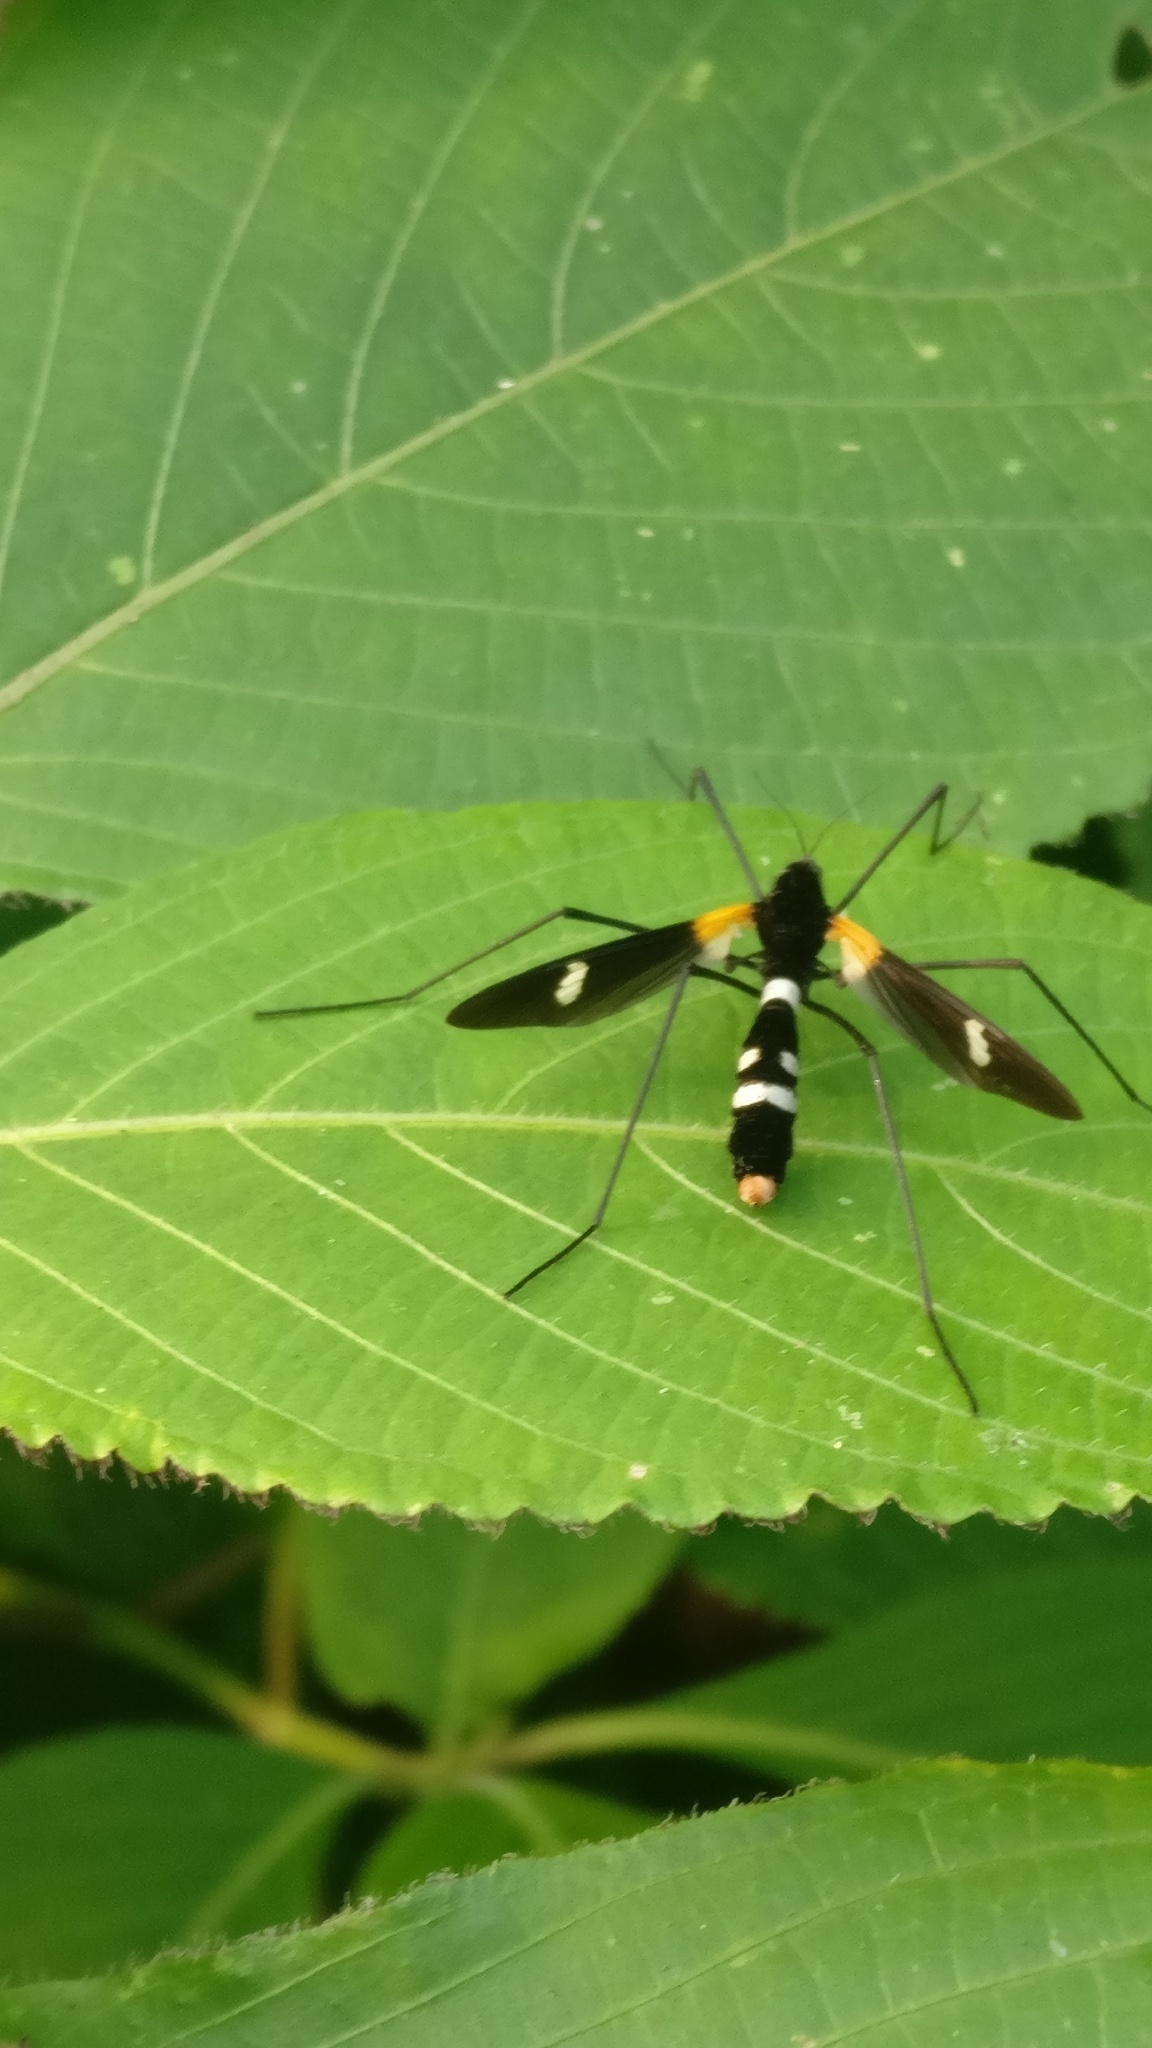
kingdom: Animalia
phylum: Arthropoda
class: Insecta
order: Diptera
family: Limoniidae
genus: Hexatoma
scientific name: Hexatoma nepalensis
